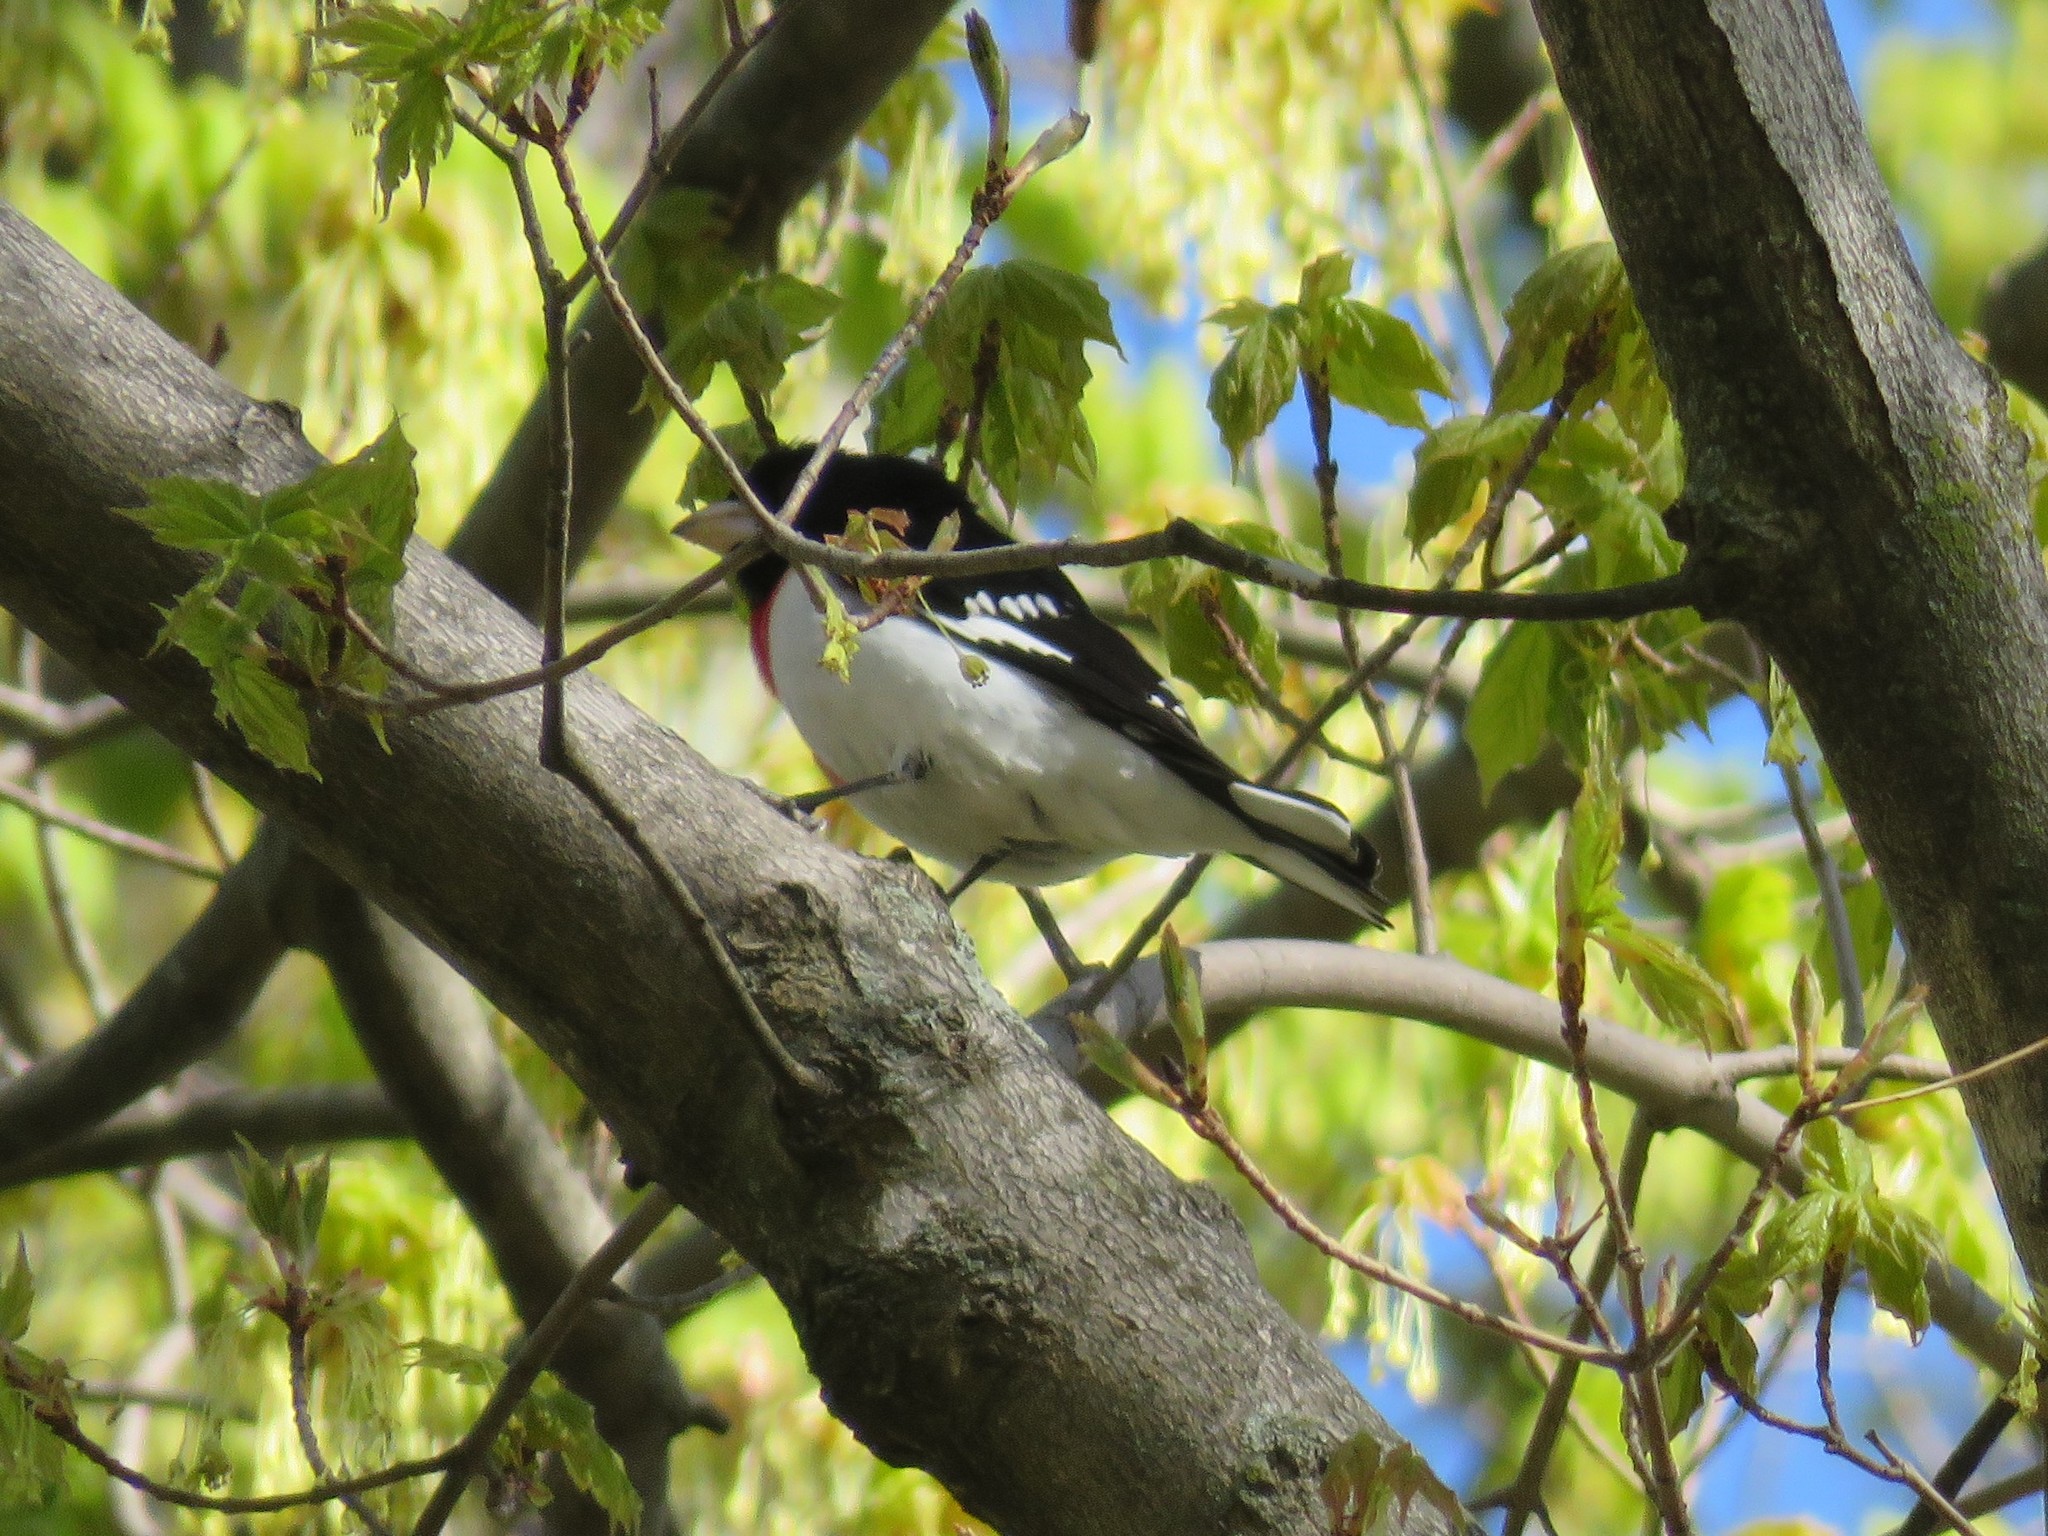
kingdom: Animalia
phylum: Chordata
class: Aves
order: Passeriformes
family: Cardinalidae
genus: Pheucticus
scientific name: Pheucticus ludovicianus
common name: Rose-breasted grosbeak
